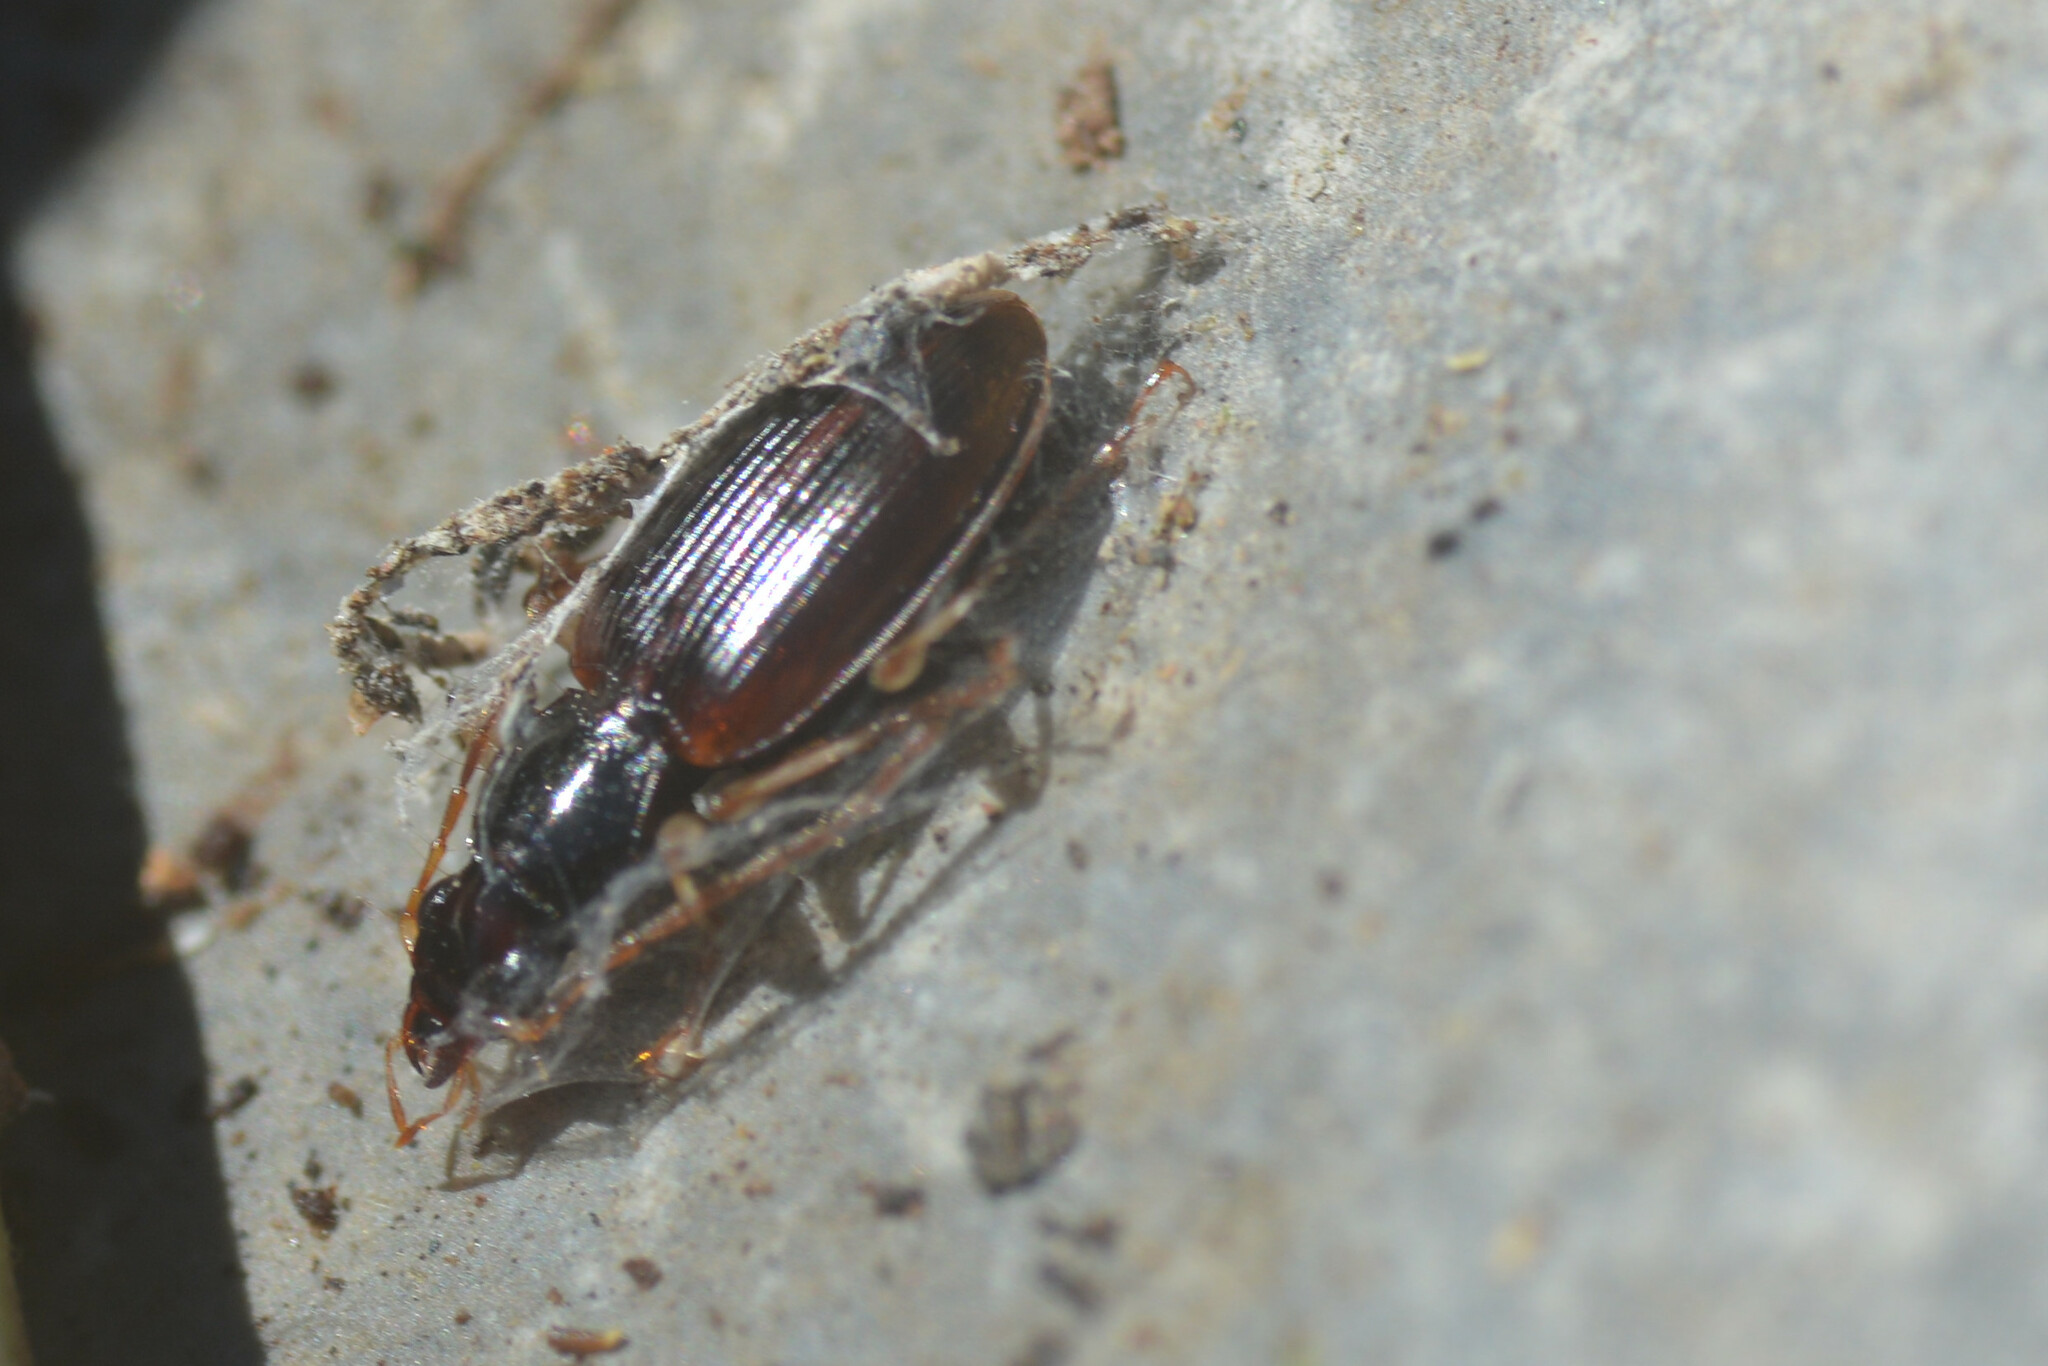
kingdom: Animalia
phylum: Arthropoda
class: Insecta
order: Coleoptera
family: Carabidae
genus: Paranchus
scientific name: Paranchus albipes
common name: White-legged harp ground beetle
